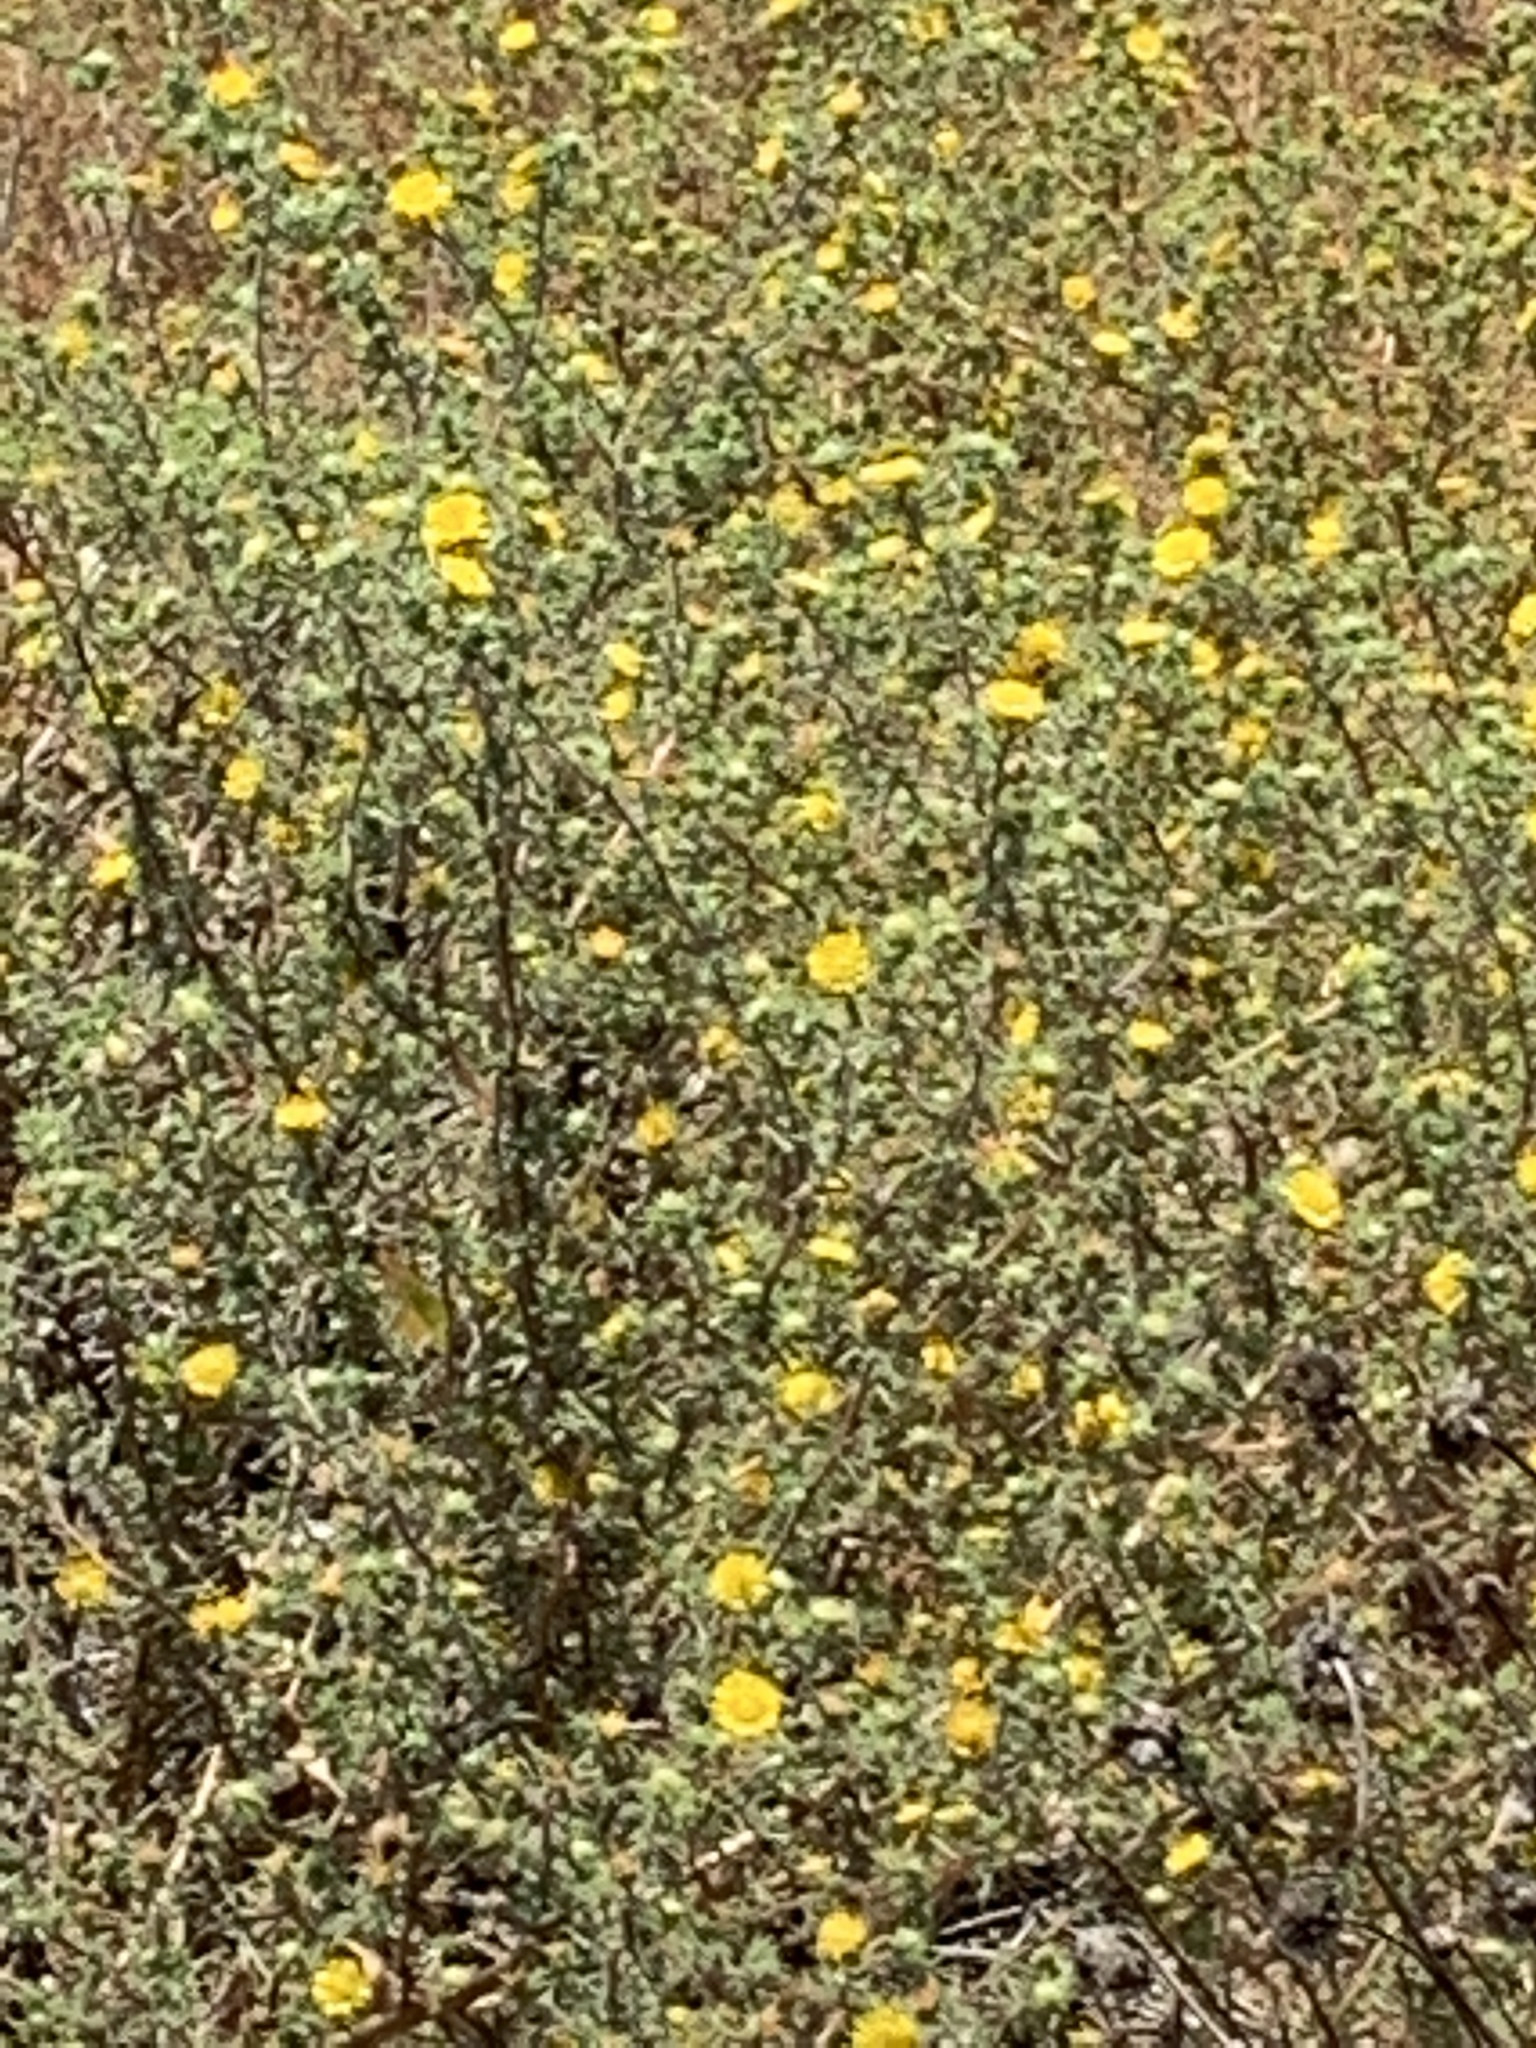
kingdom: Plantae
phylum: Tracheophyta
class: Magnoliopsida
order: Asterales
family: Asteraceae
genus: Centromadia
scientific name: Centromadia parryi
